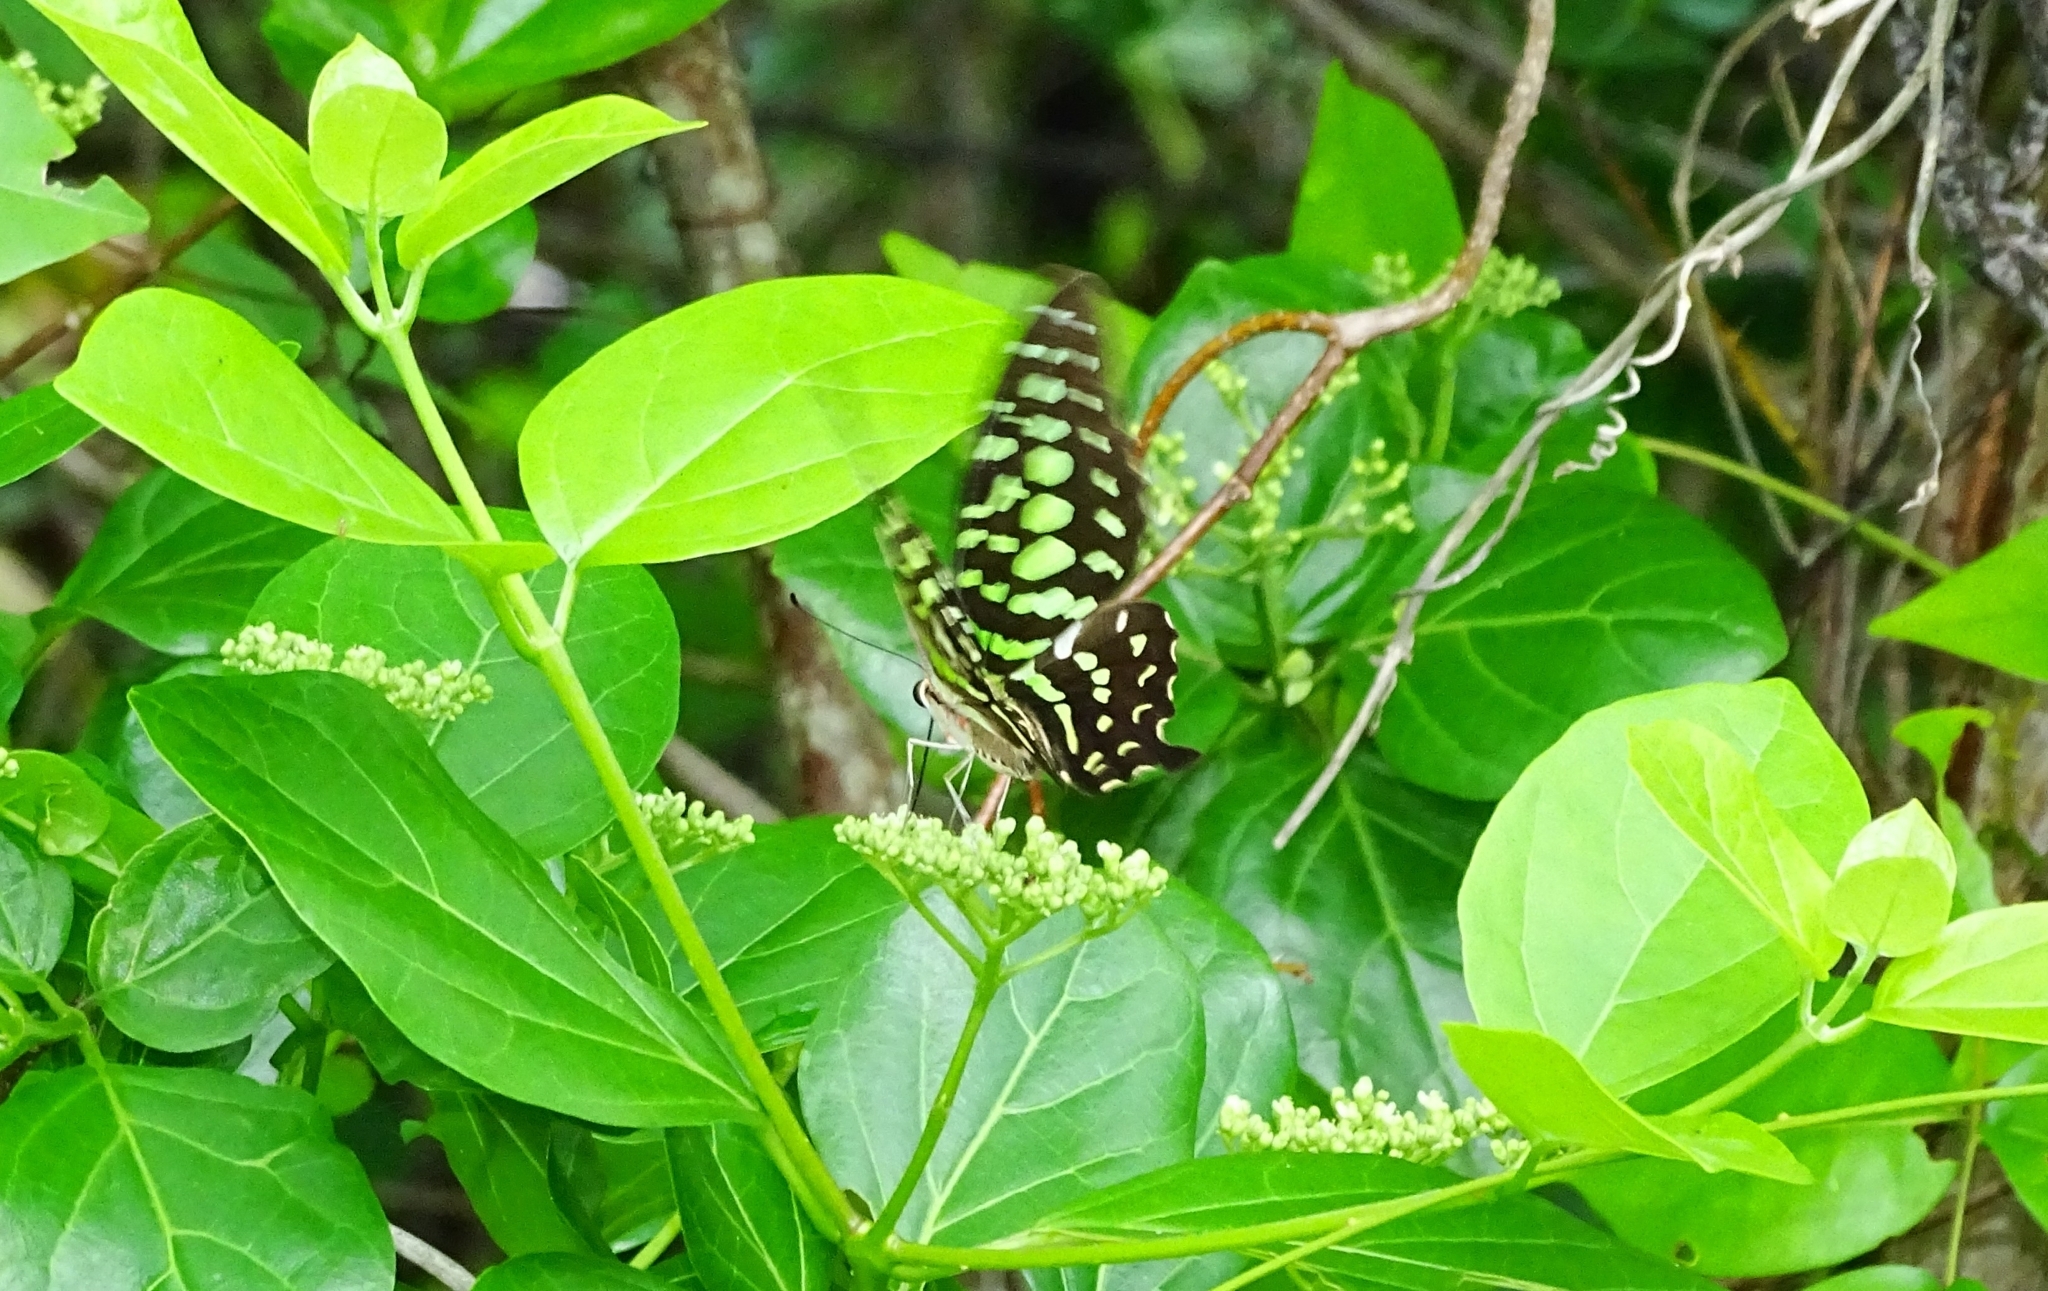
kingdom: Animalia
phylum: Arthropoda
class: Insecta
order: Lepidoptera
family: Papilionidae
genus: Graphium
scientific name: Graphium agamemnon
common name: Tailed jay
